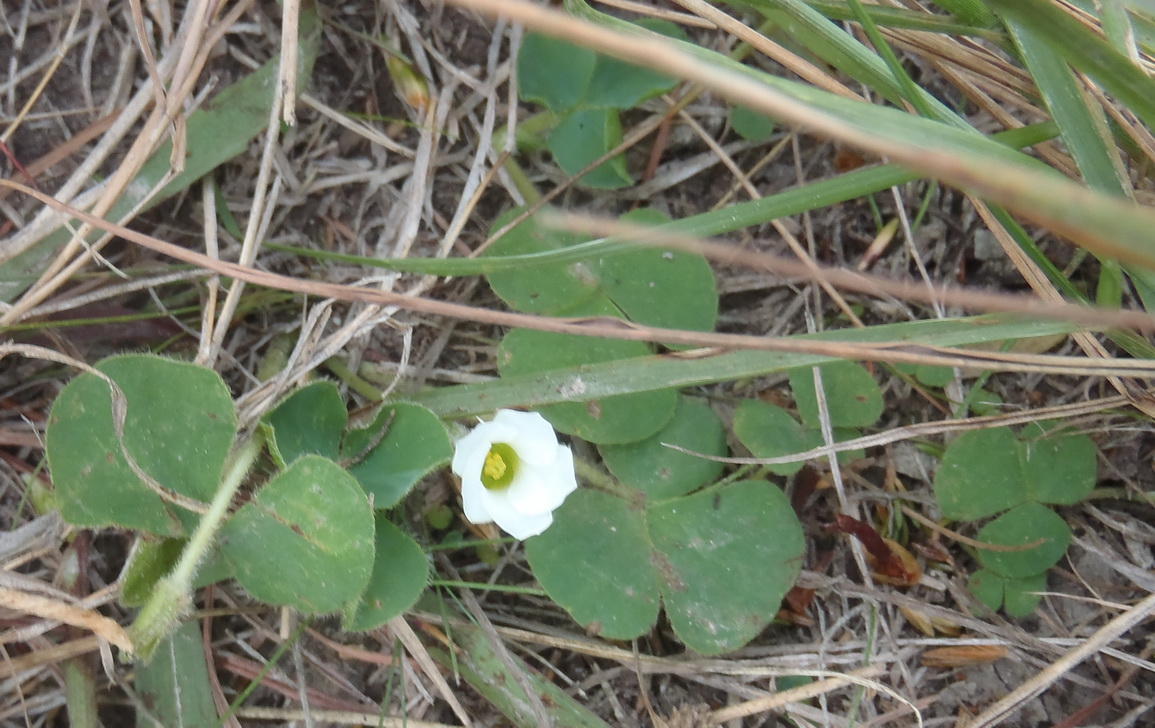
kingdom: Plantae
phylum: Tracheophyta
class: Magnoliopsida
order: Oxalidales
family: Oxalidaceae
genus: Oxalis
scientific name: Oxalis purpurea
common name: Purple woodsorrel
